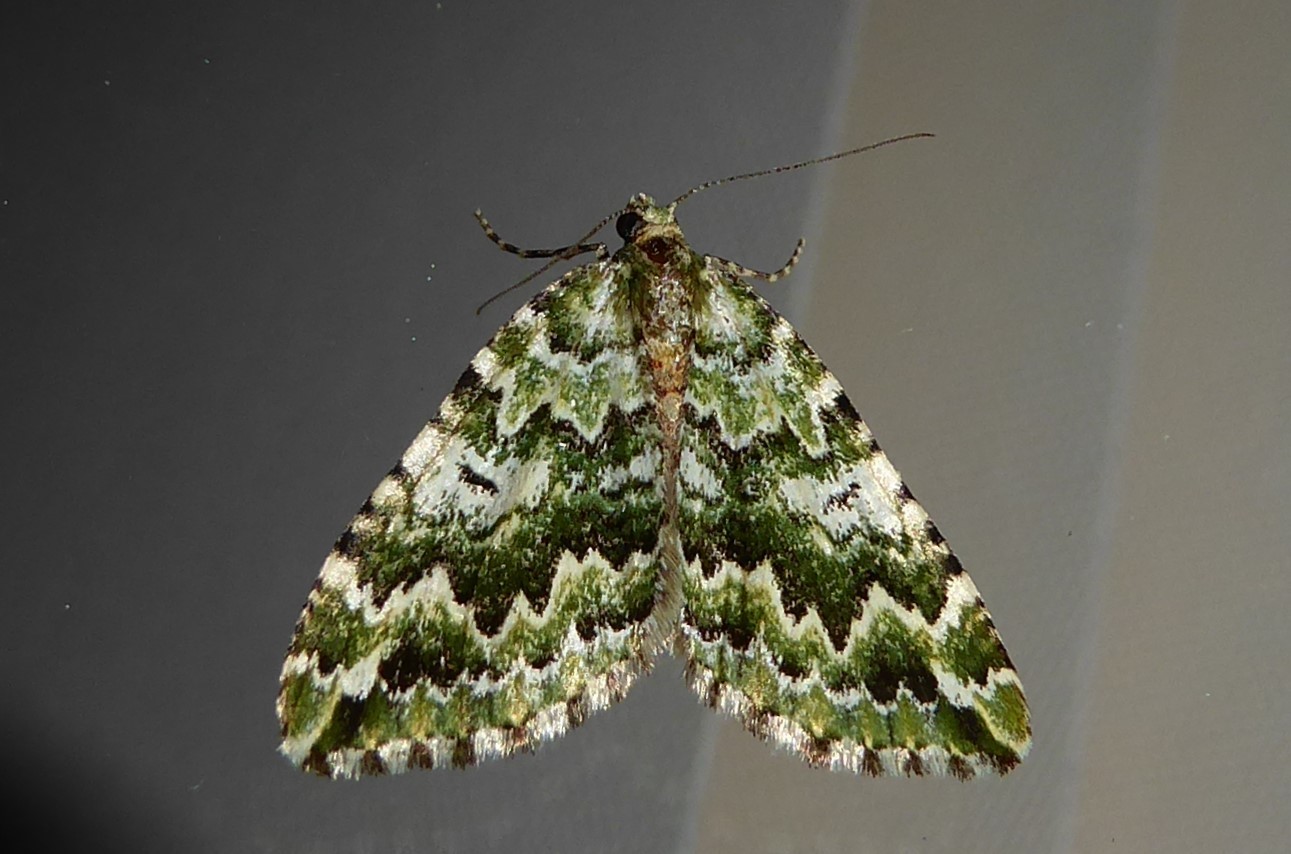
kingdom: Animalia
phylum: Arthropoda
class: Insecta
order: Lepidoptera
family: Geometridae
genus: Asaphodes
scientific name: Asaphodes beata
